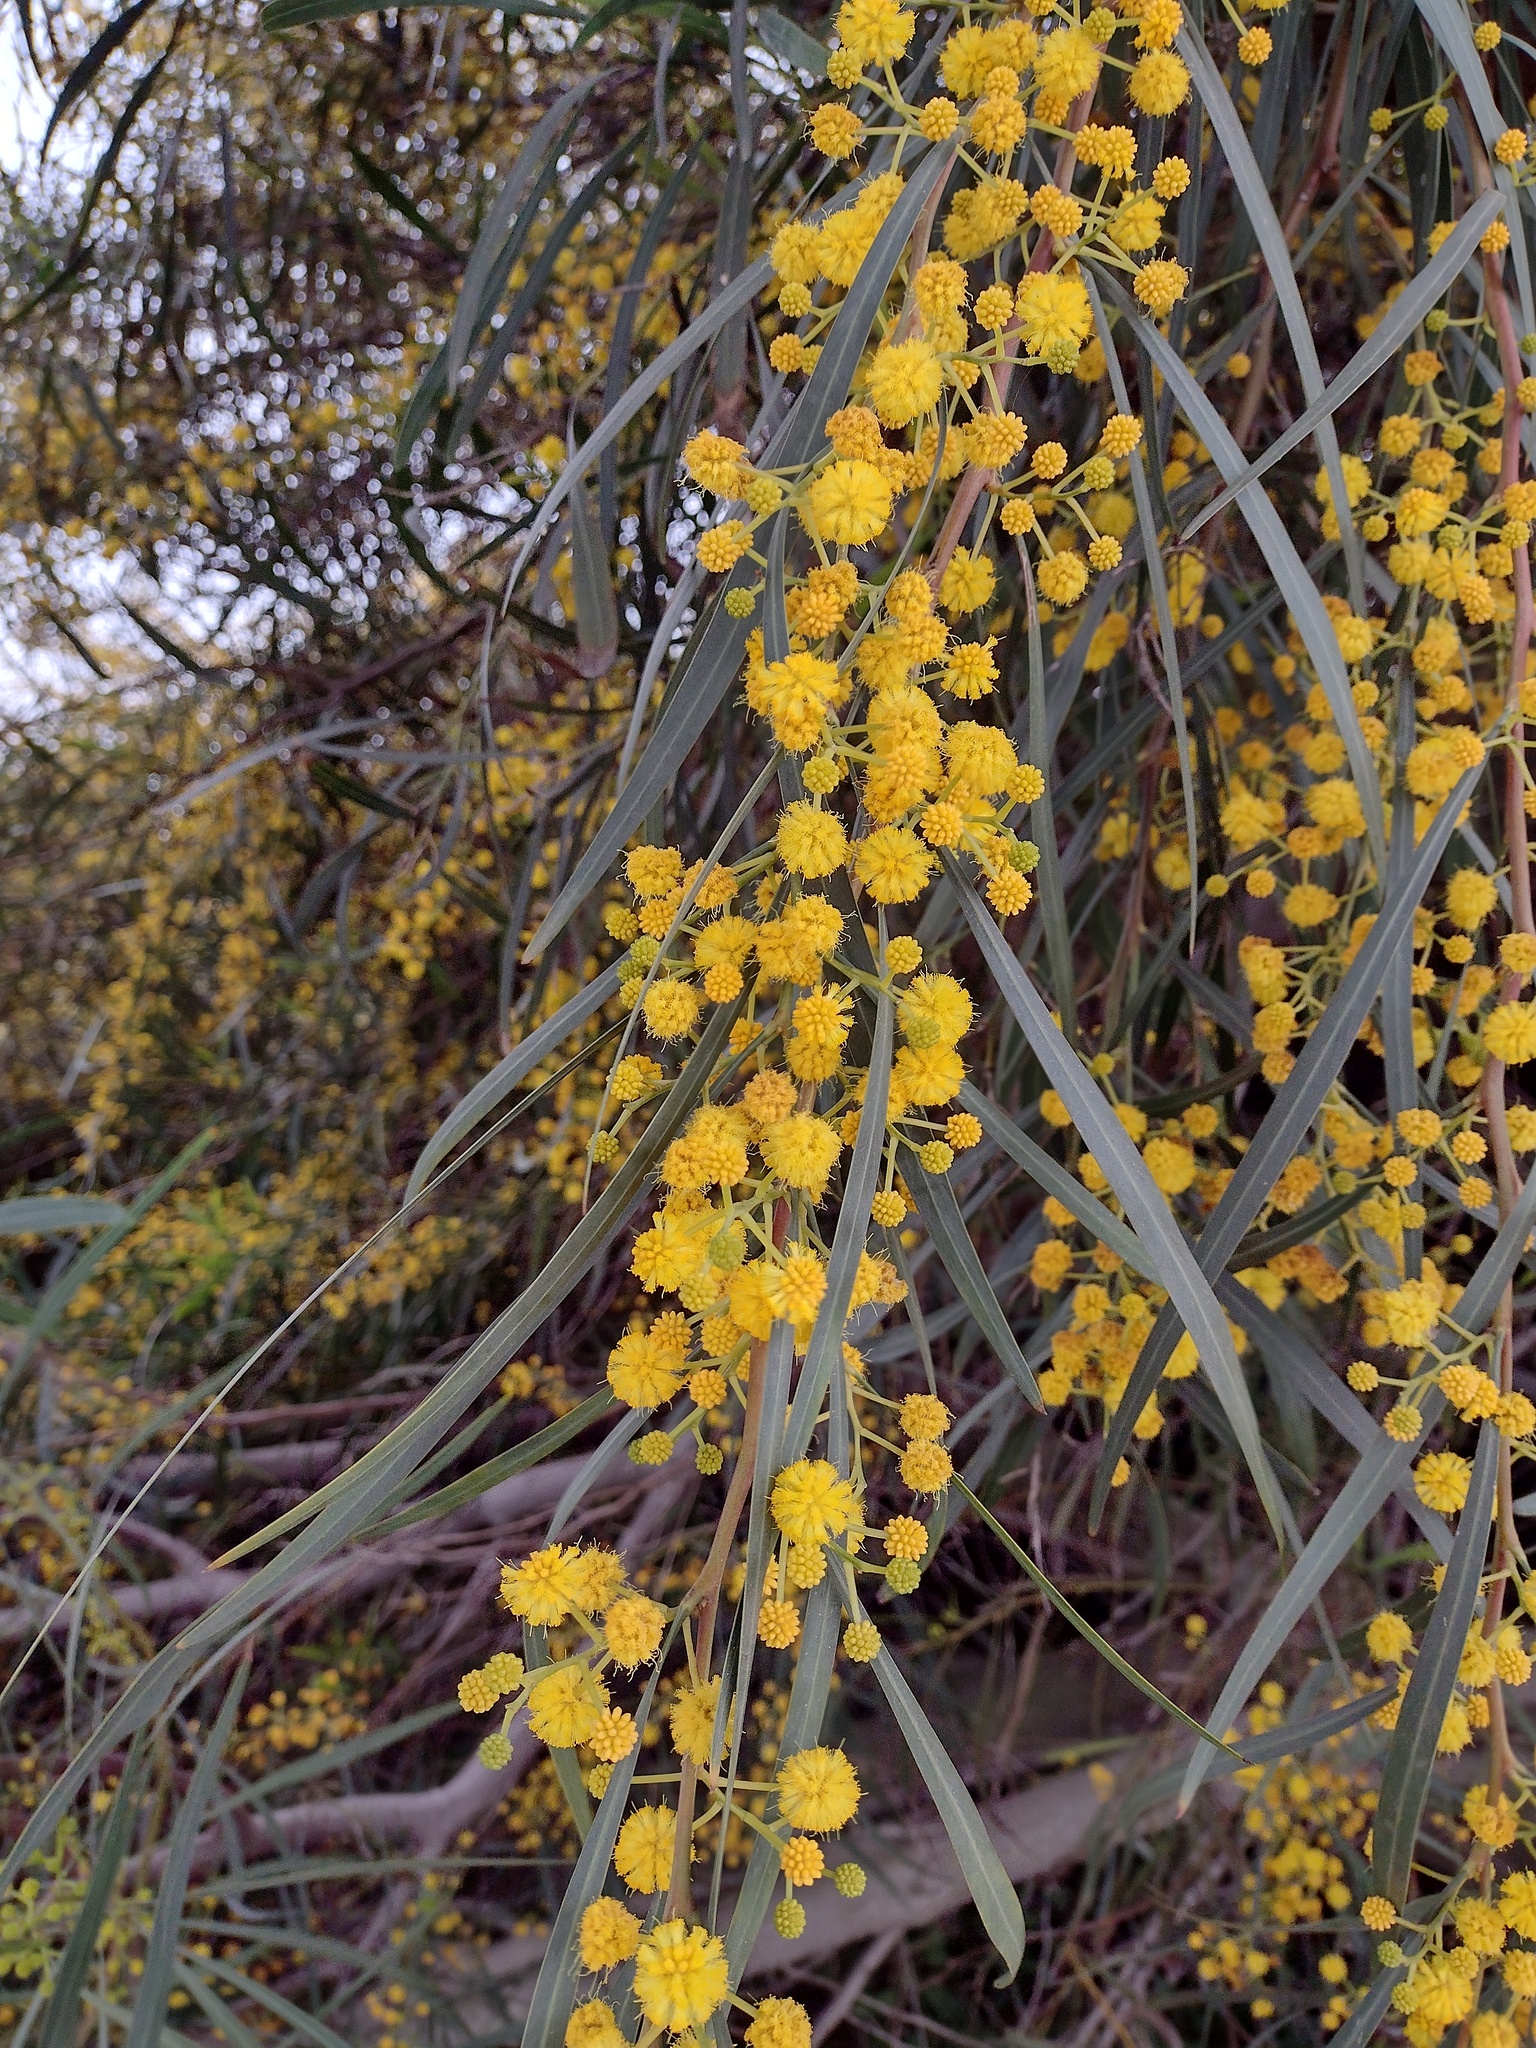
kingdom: Plantae
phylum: Tracheophyta
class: Magnoliopsida
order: Fabales
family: Fabaceae
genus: Acacia
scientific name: Acacia saligna
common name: Orange wattle
